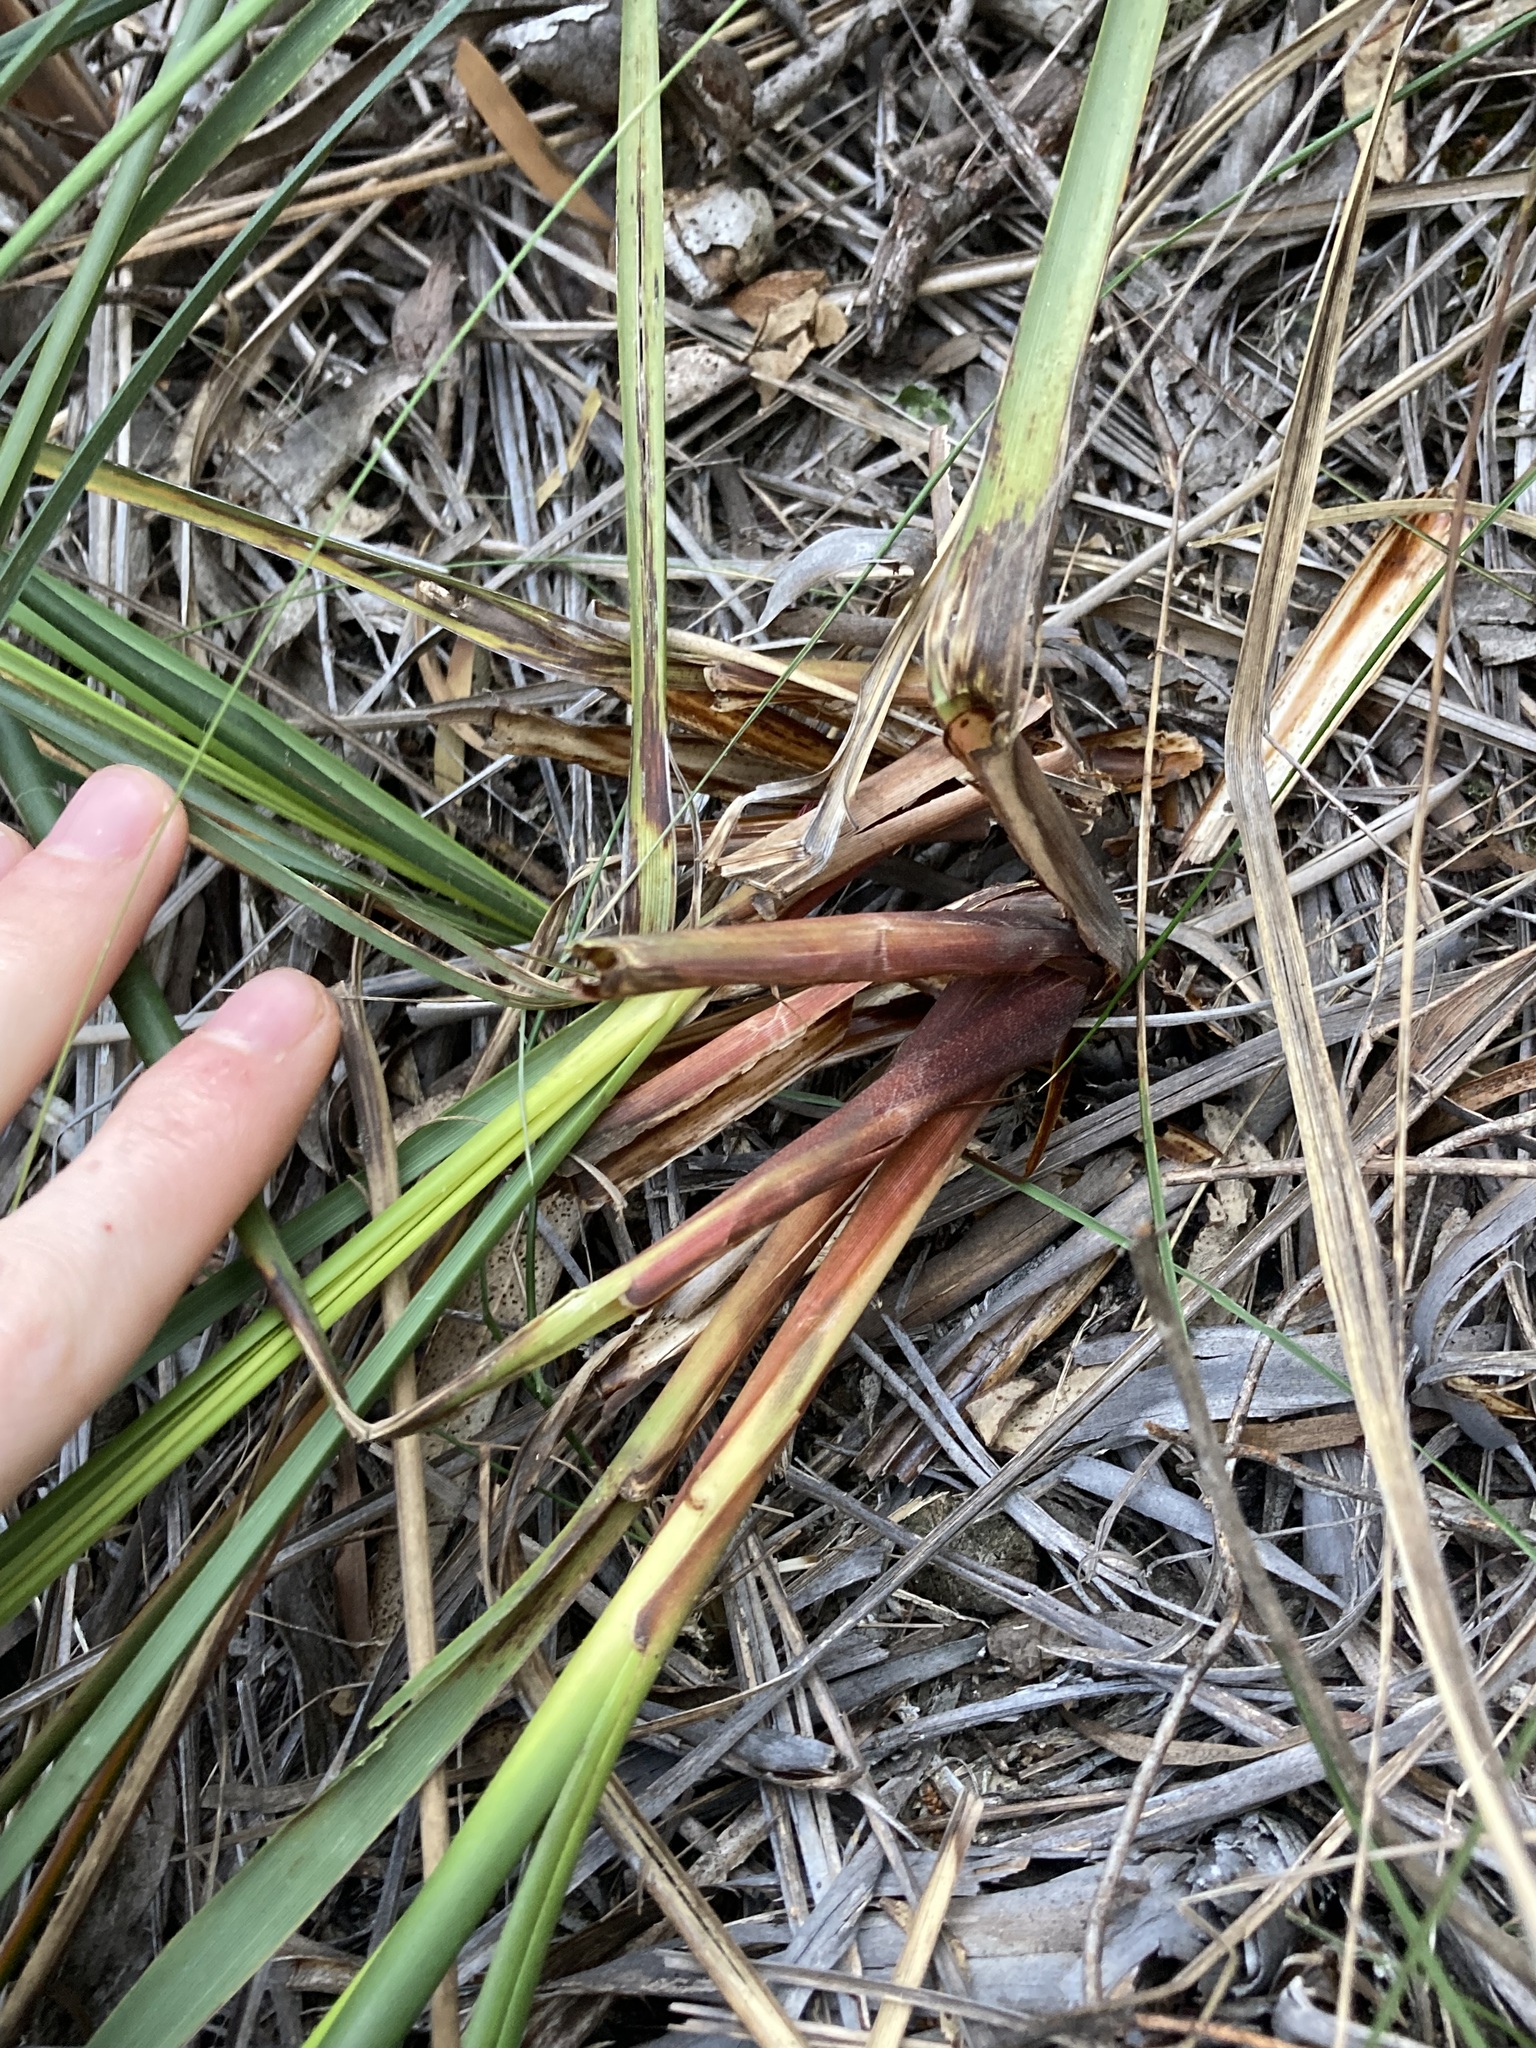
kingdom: Plantae
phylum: Tracheophyta
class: Liliopsida
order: Poales
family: Cyperaceae
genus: Gahnia
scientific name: Gahnia trifida
